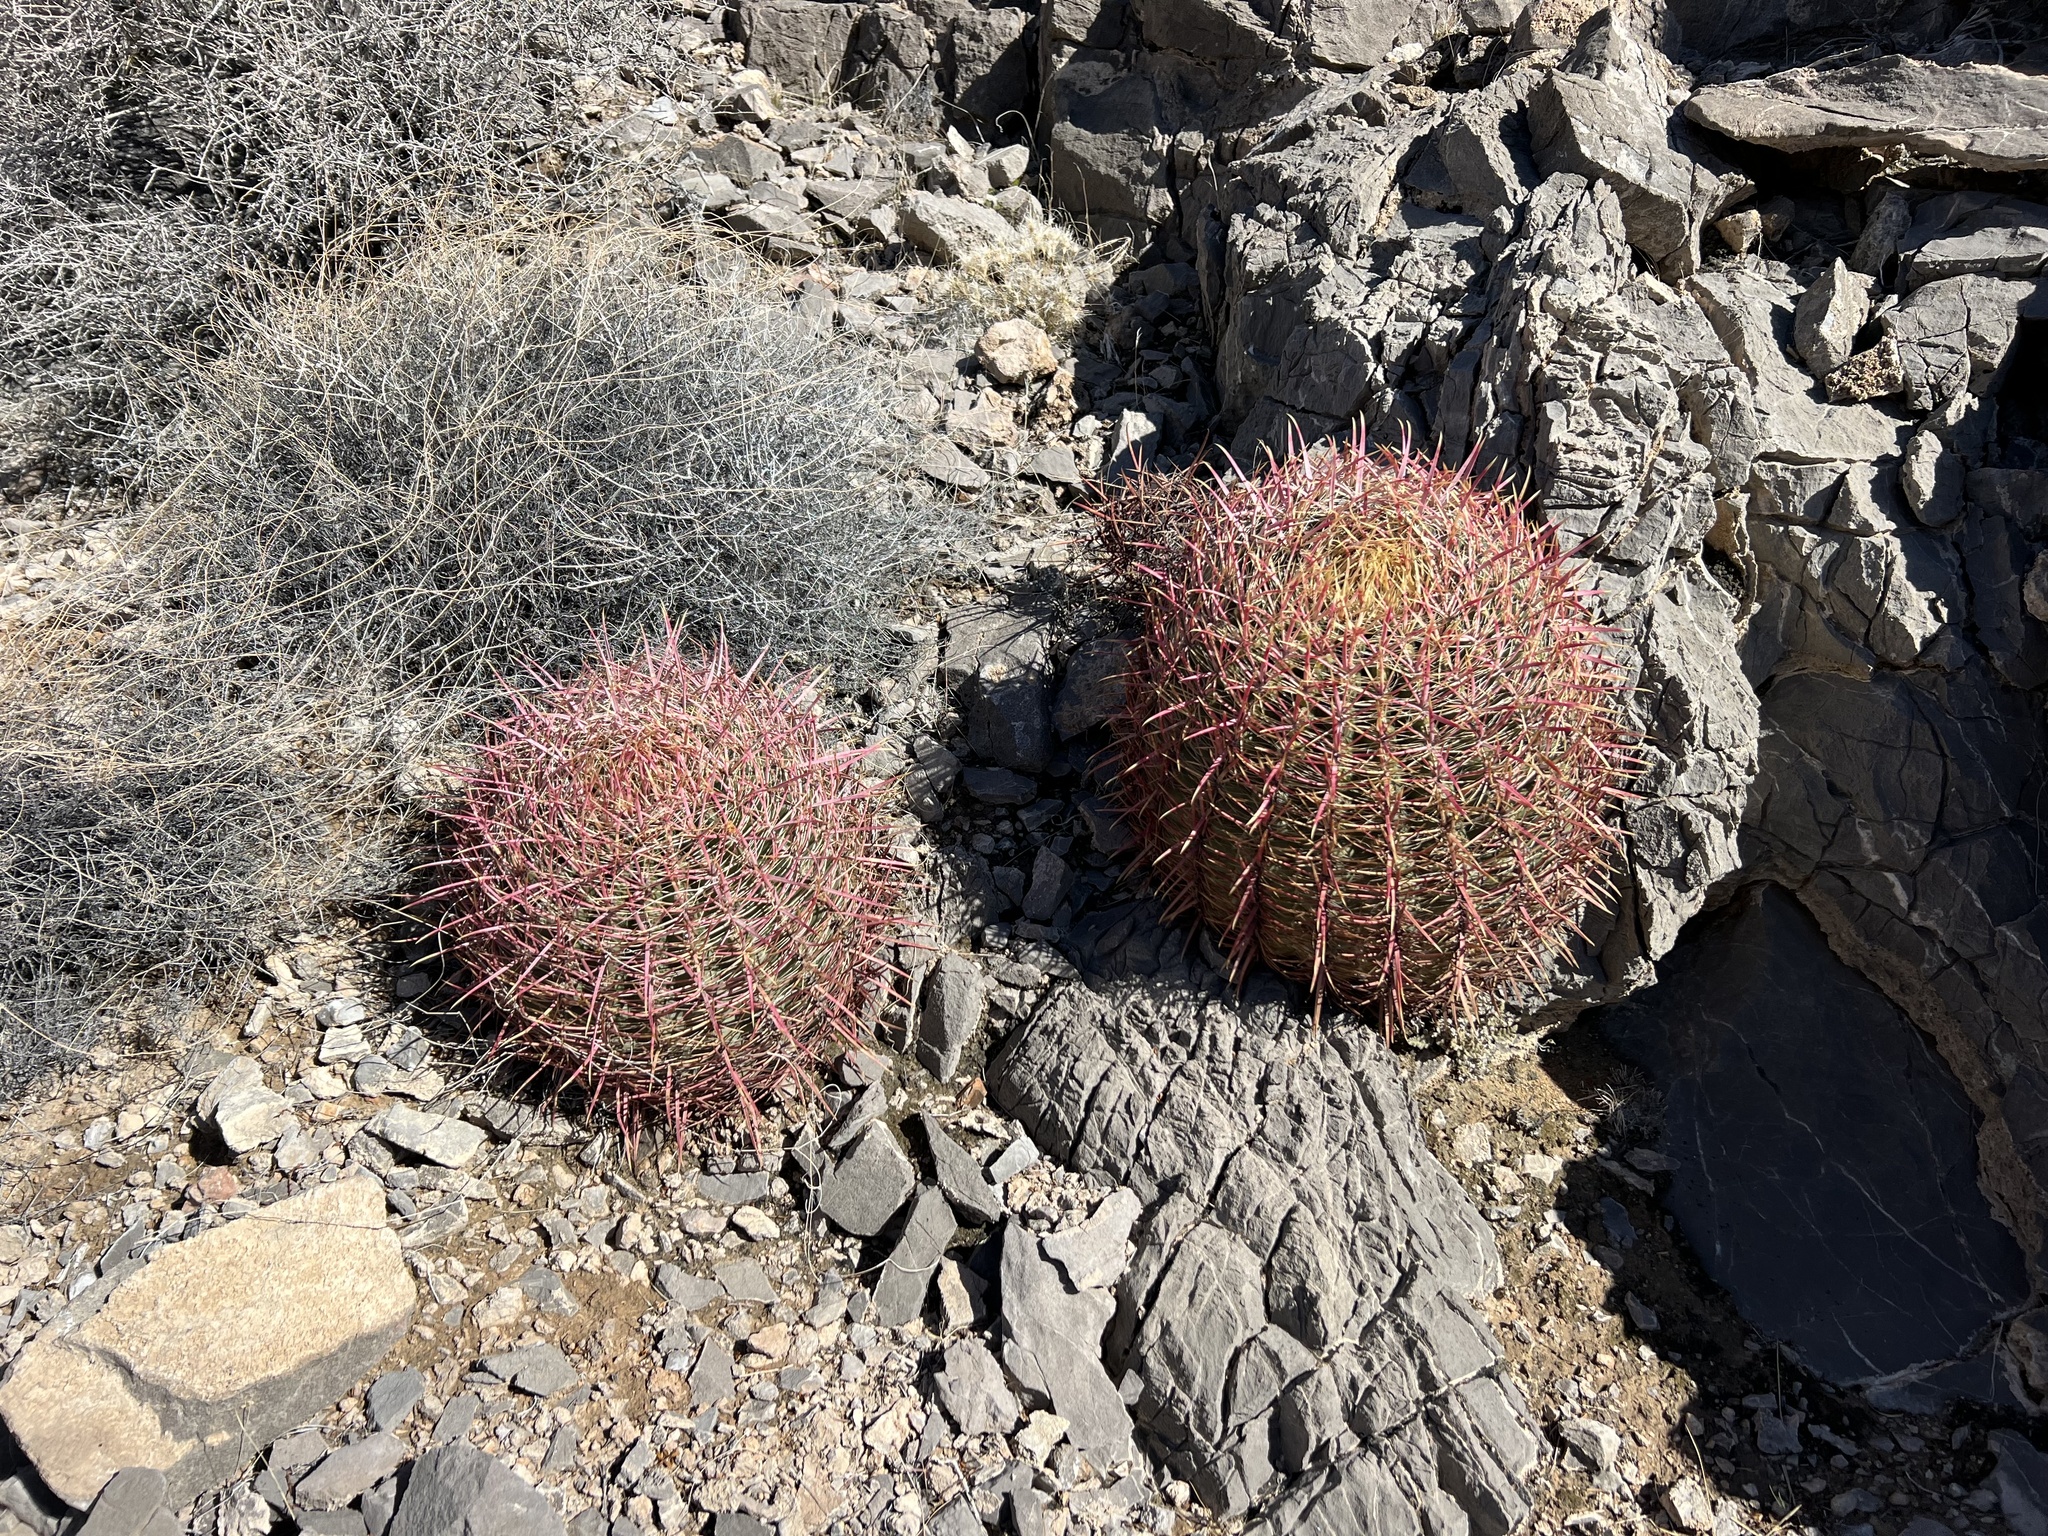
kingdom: Plantae
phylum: Tracheophyta
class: Magnoliopsida
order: Caryophyllales
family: Cactaceae
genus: Ferocactus
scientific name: Ferocactus cylindraceus
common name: California barrel cactus
